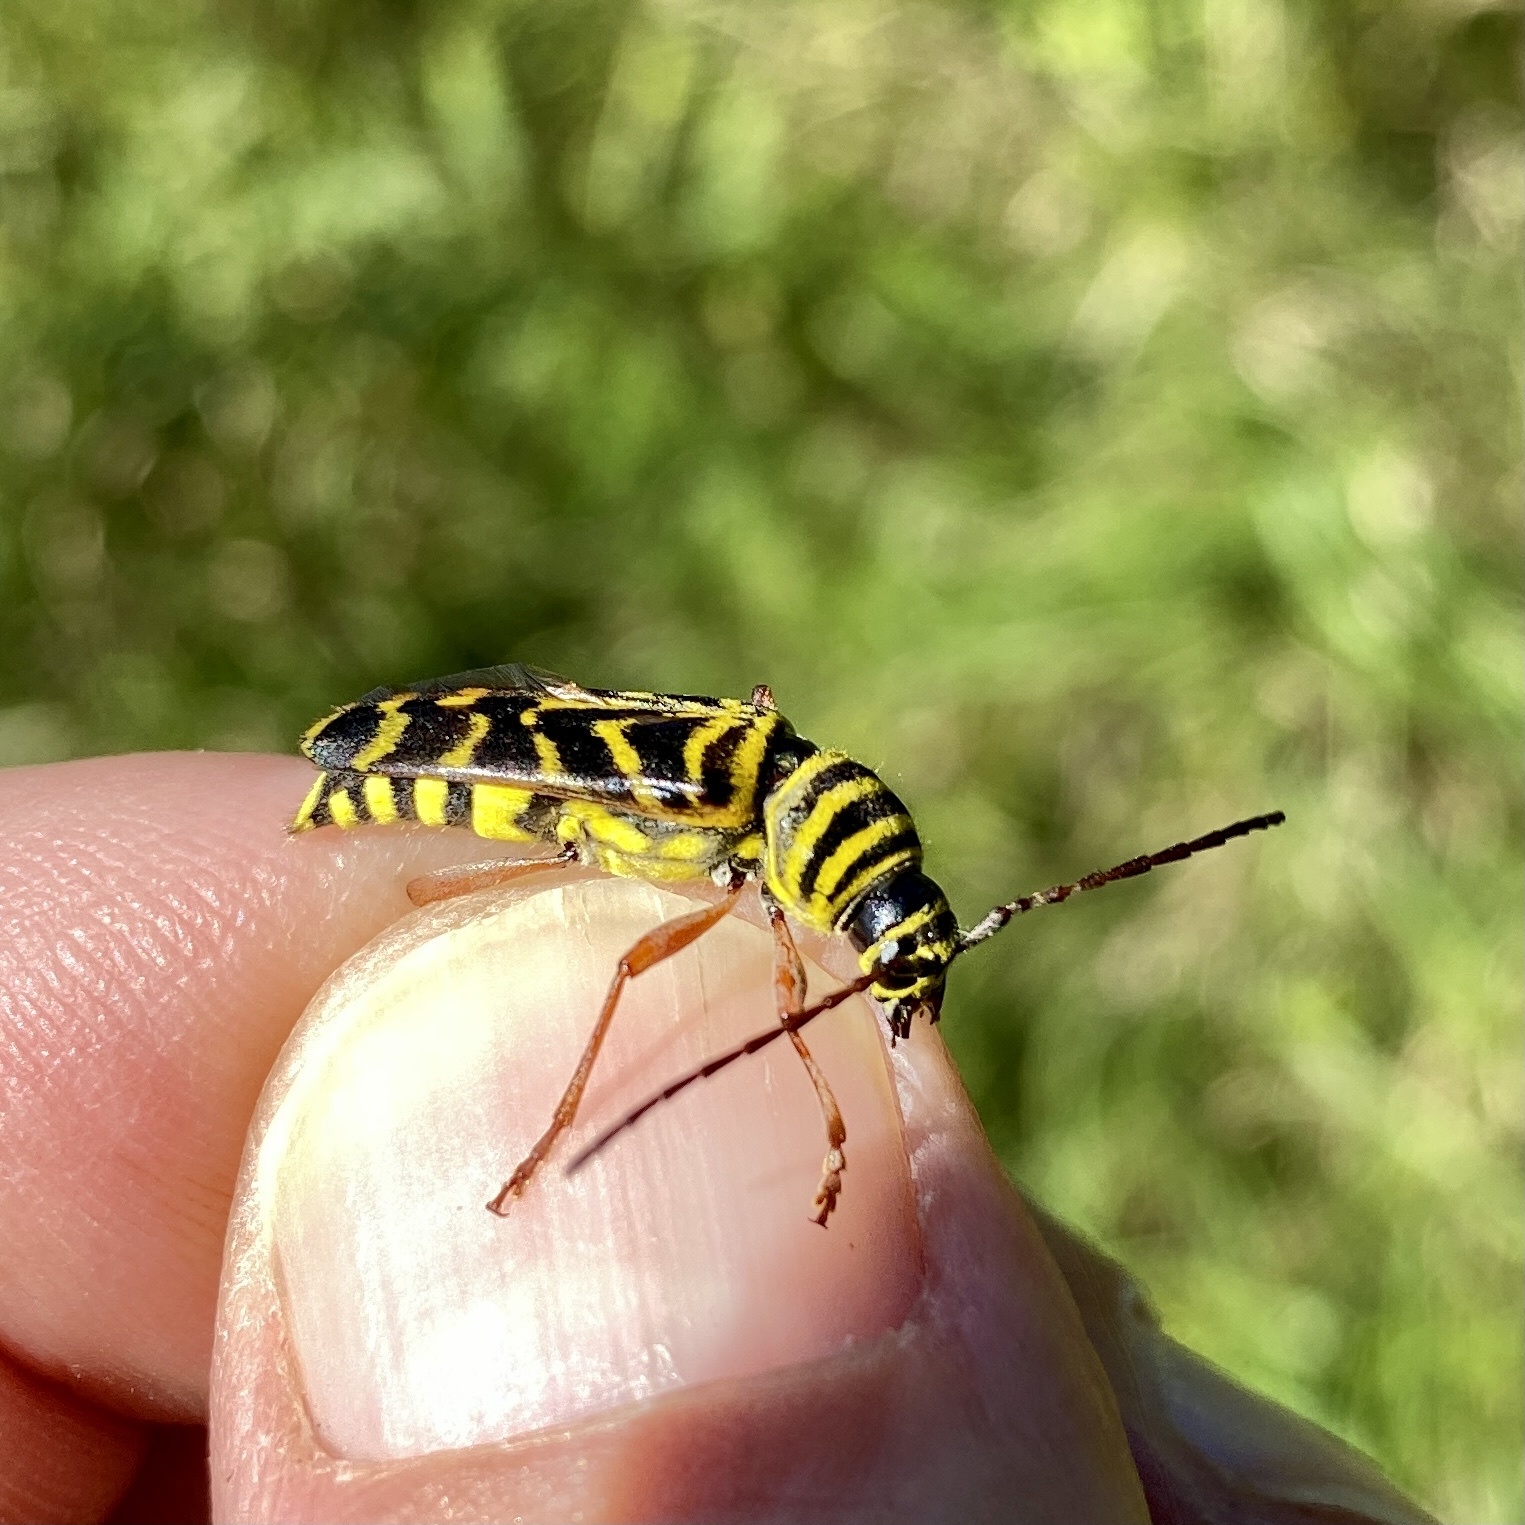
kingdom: Animalia
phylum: Arthropoda
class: Insecta
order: Coleoptera
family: Cerambycidae
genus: Megacyllene
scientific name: Megacyllene robiniae
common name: Locust borer
